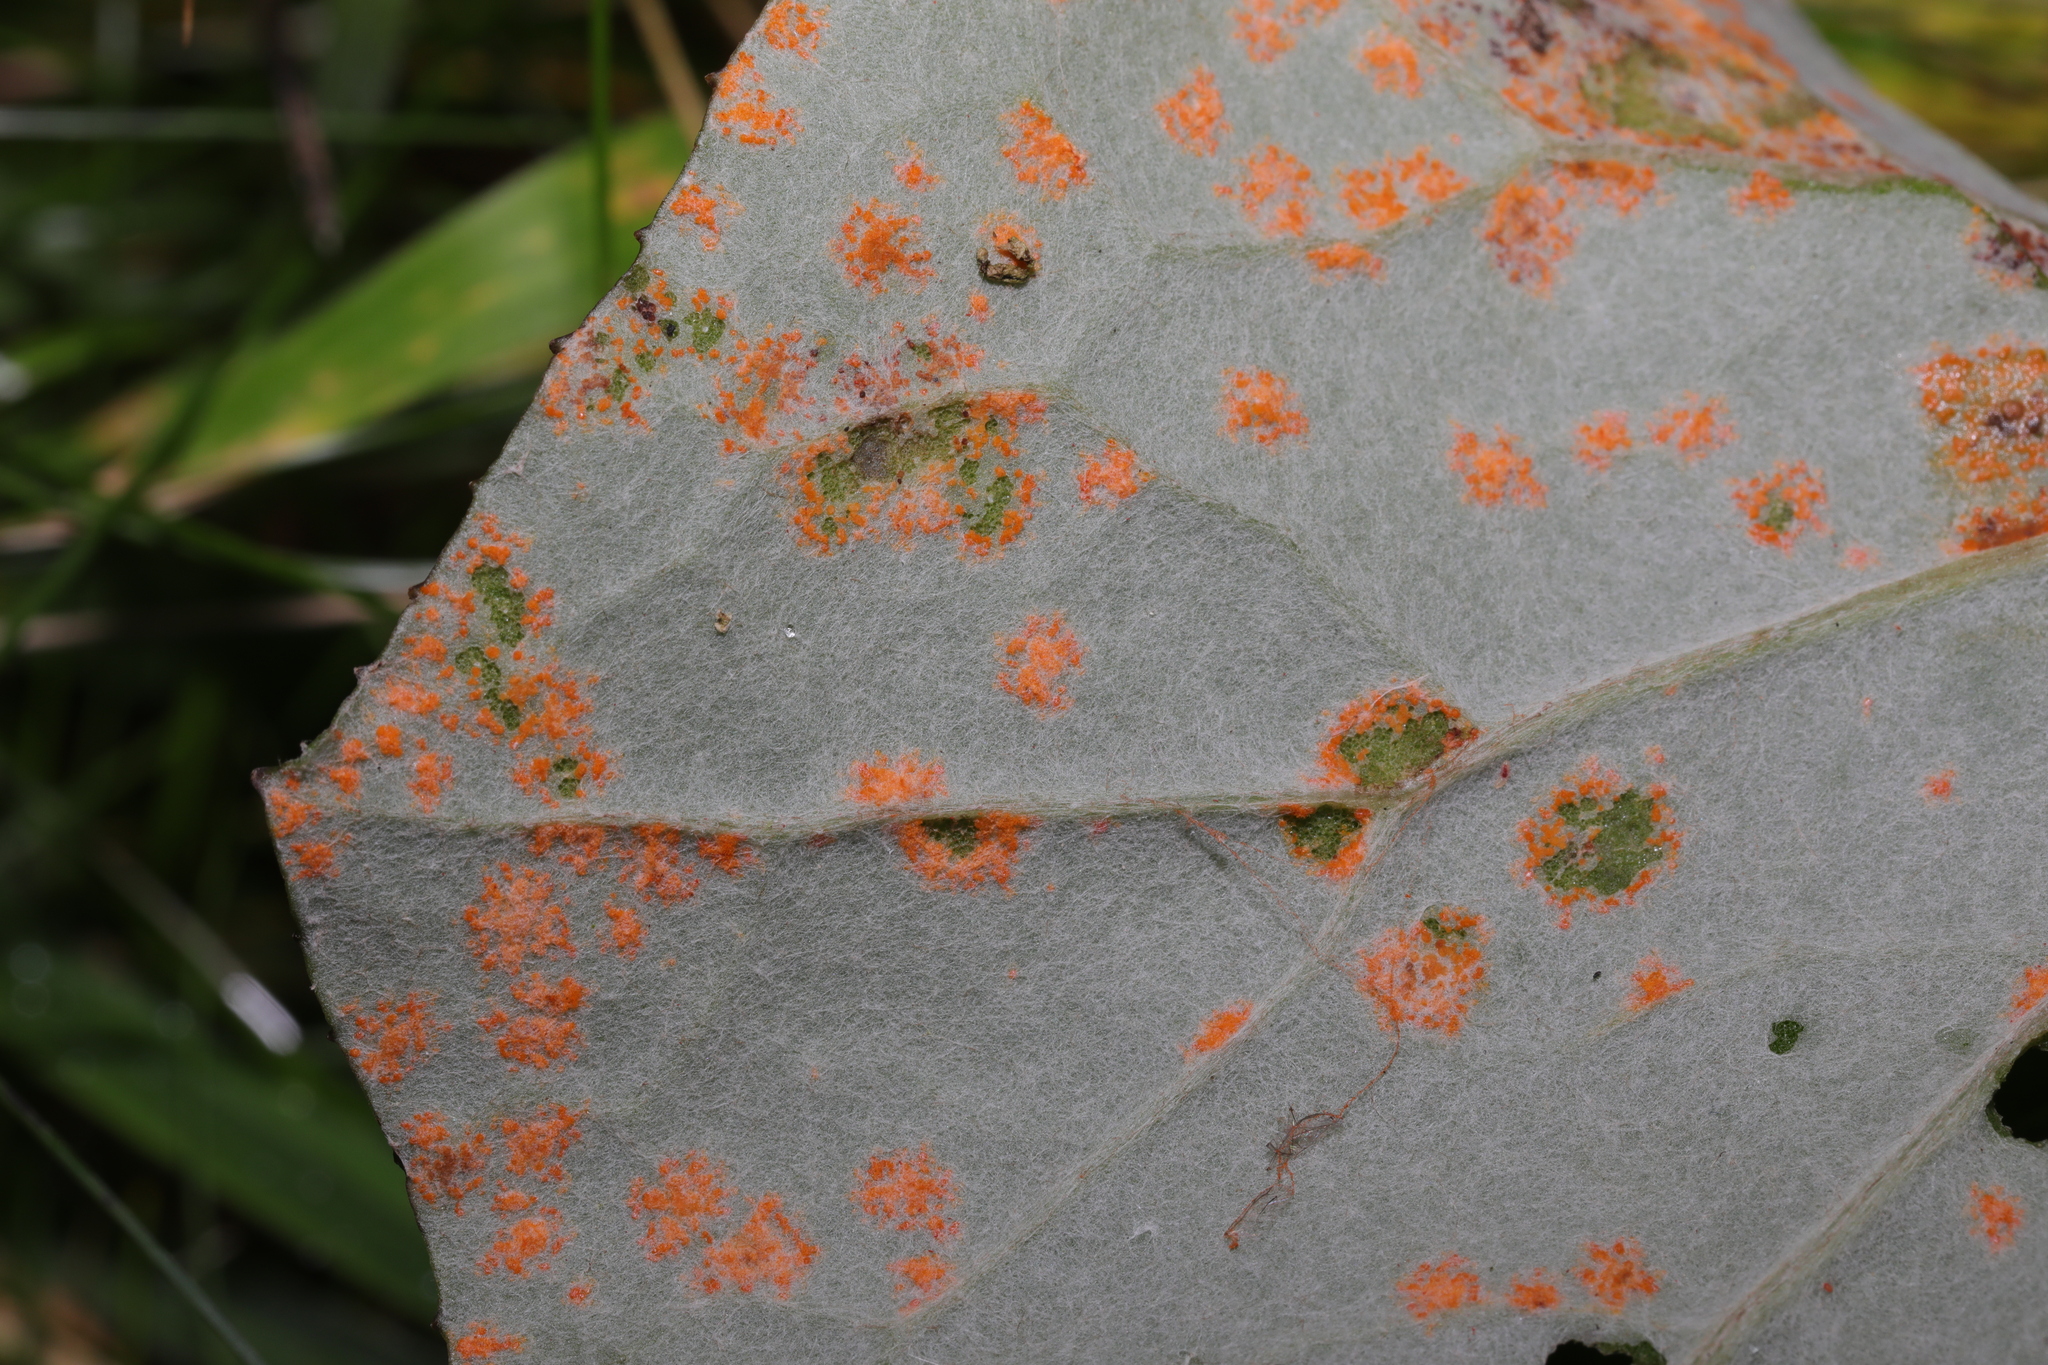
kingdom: Fungi
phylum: Basidiomycota
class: Pucciniomycetes
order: Pucciniales
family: Coleosporiaceae
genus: Coleosporium
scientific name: Coleosporium tussilaginis
